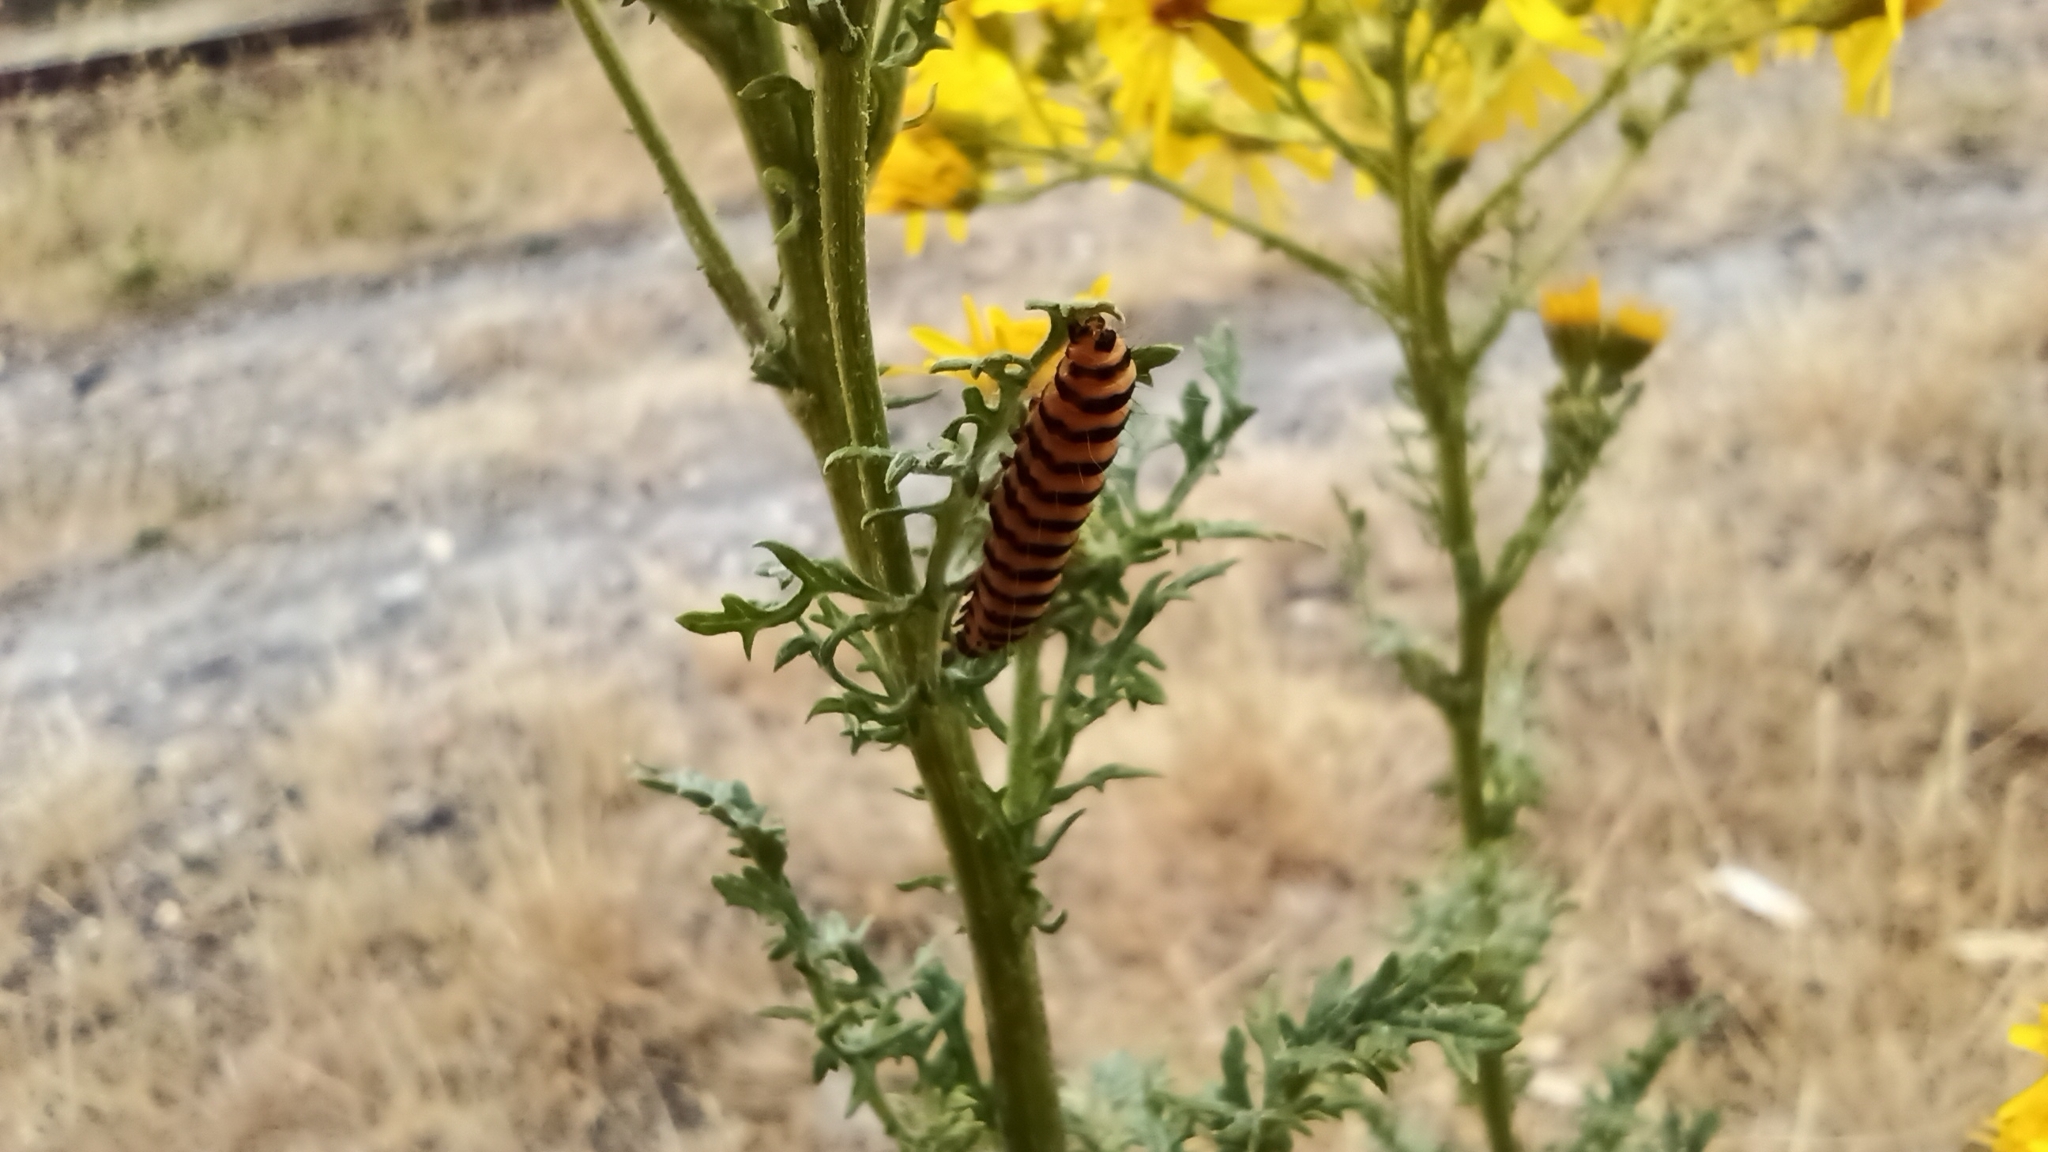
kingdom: Animalia
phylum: Arthropoda
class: Insecta
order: Lepidoptera
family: Erebidae
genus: Tyria
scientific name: Tyria jacobaeae
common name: Cinnabar
